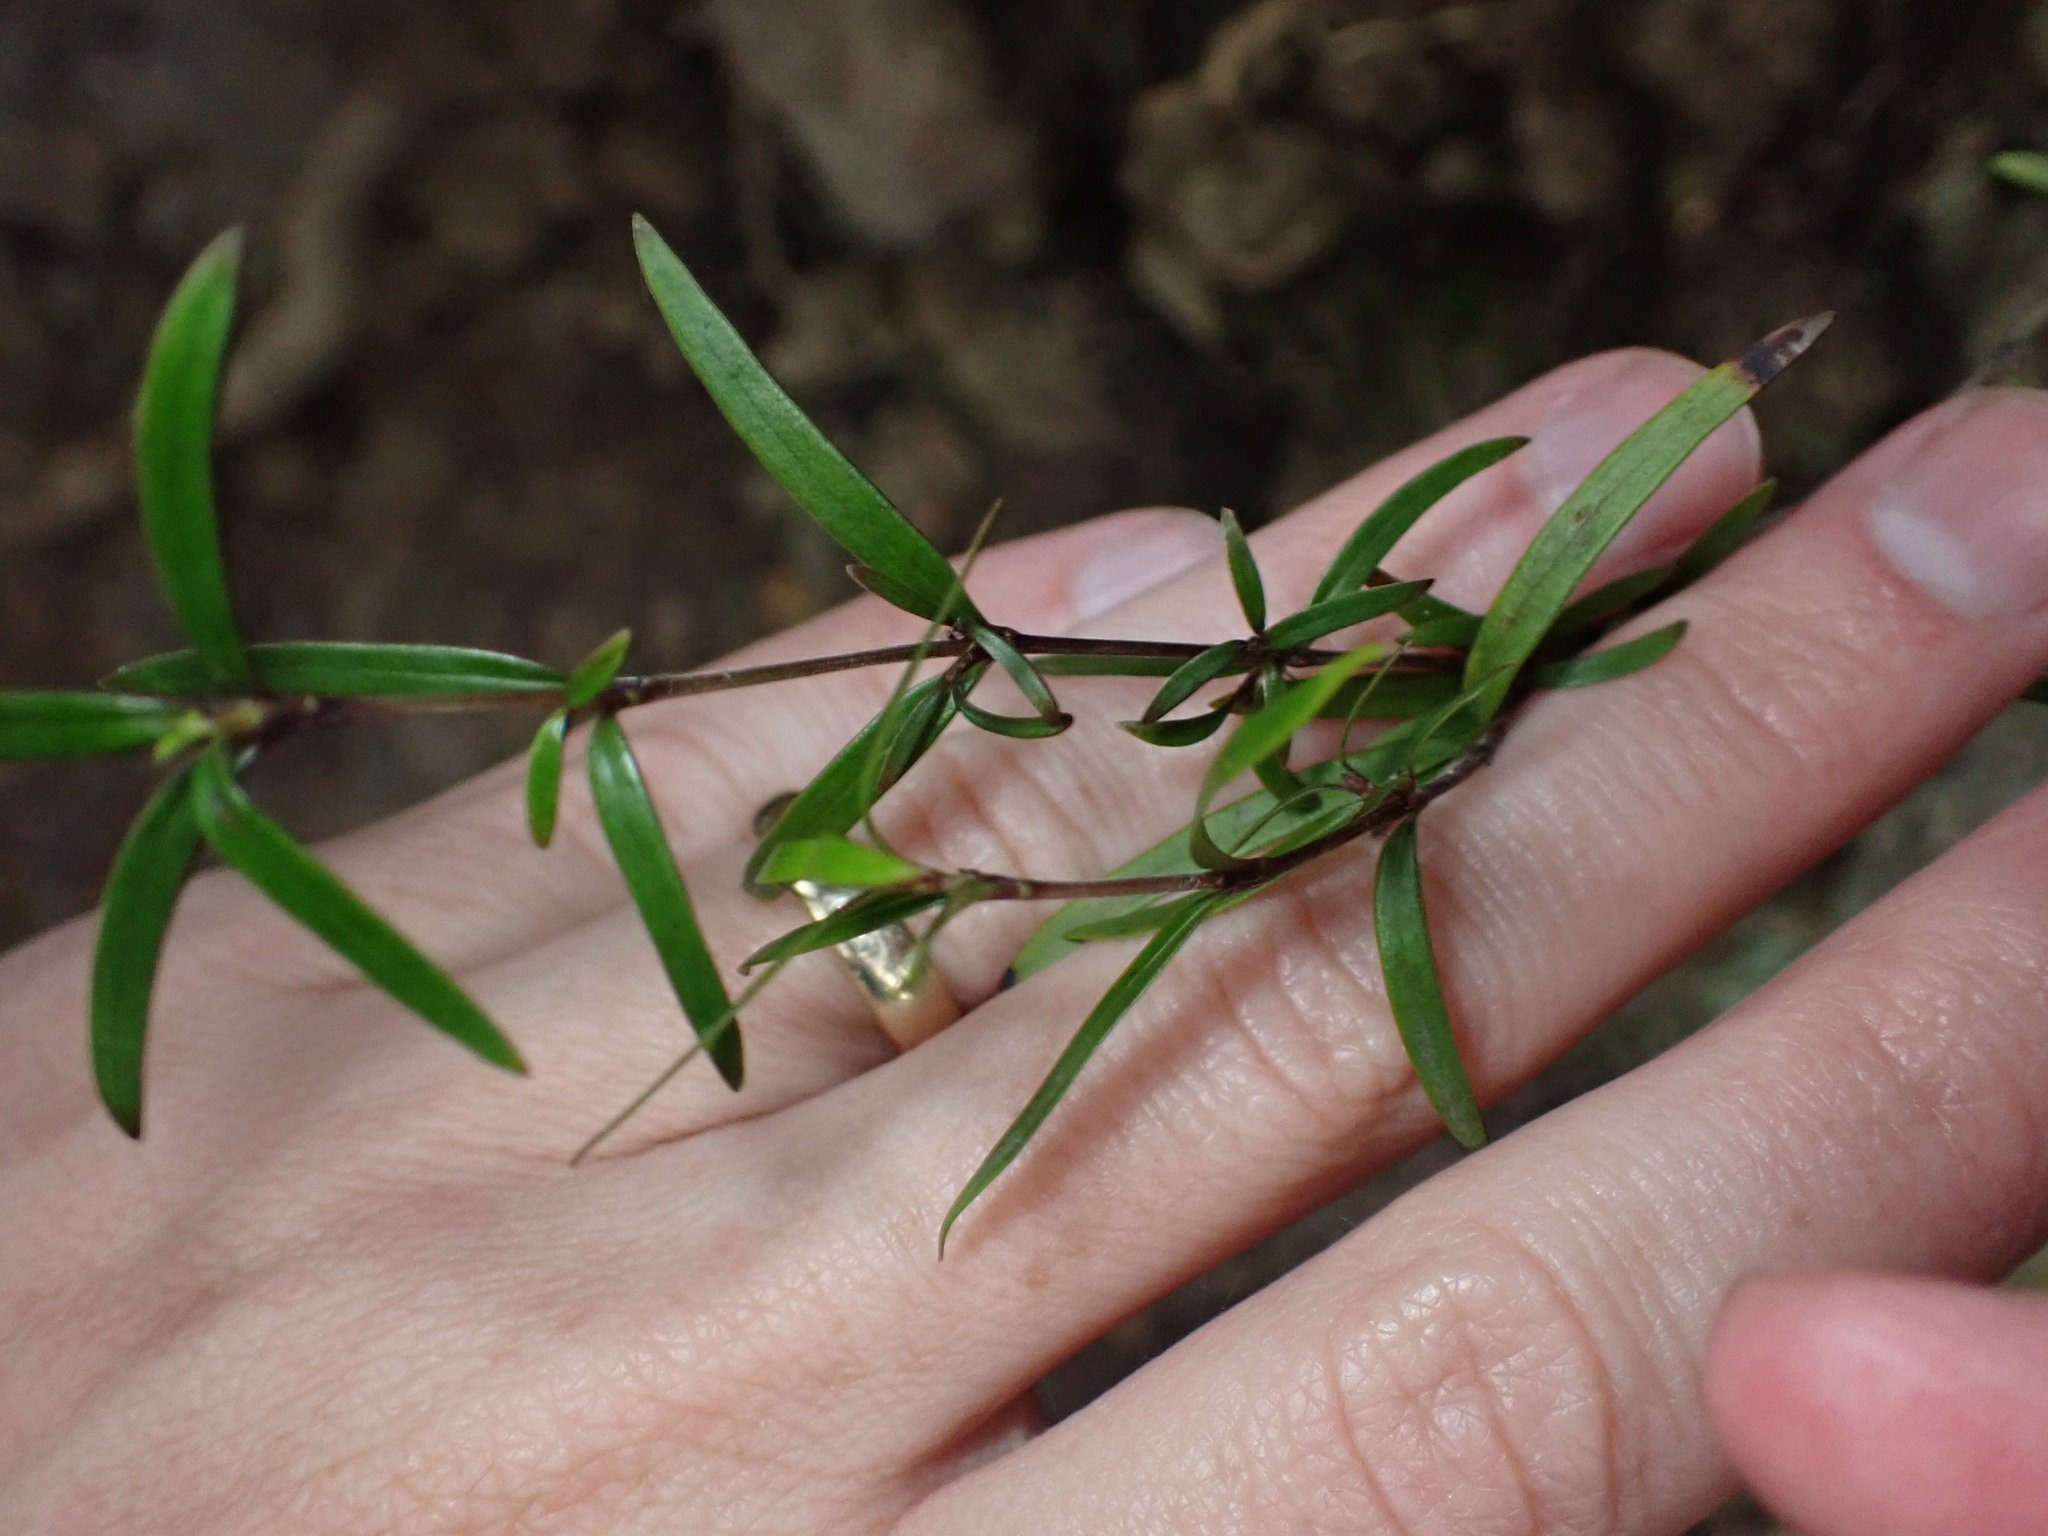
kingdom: Plantae
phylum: Tracheophyta
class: Magnoliopsida
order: Gentianales
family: Rubiaceae
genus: Coprosma
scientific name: Coprosma linariifolia
